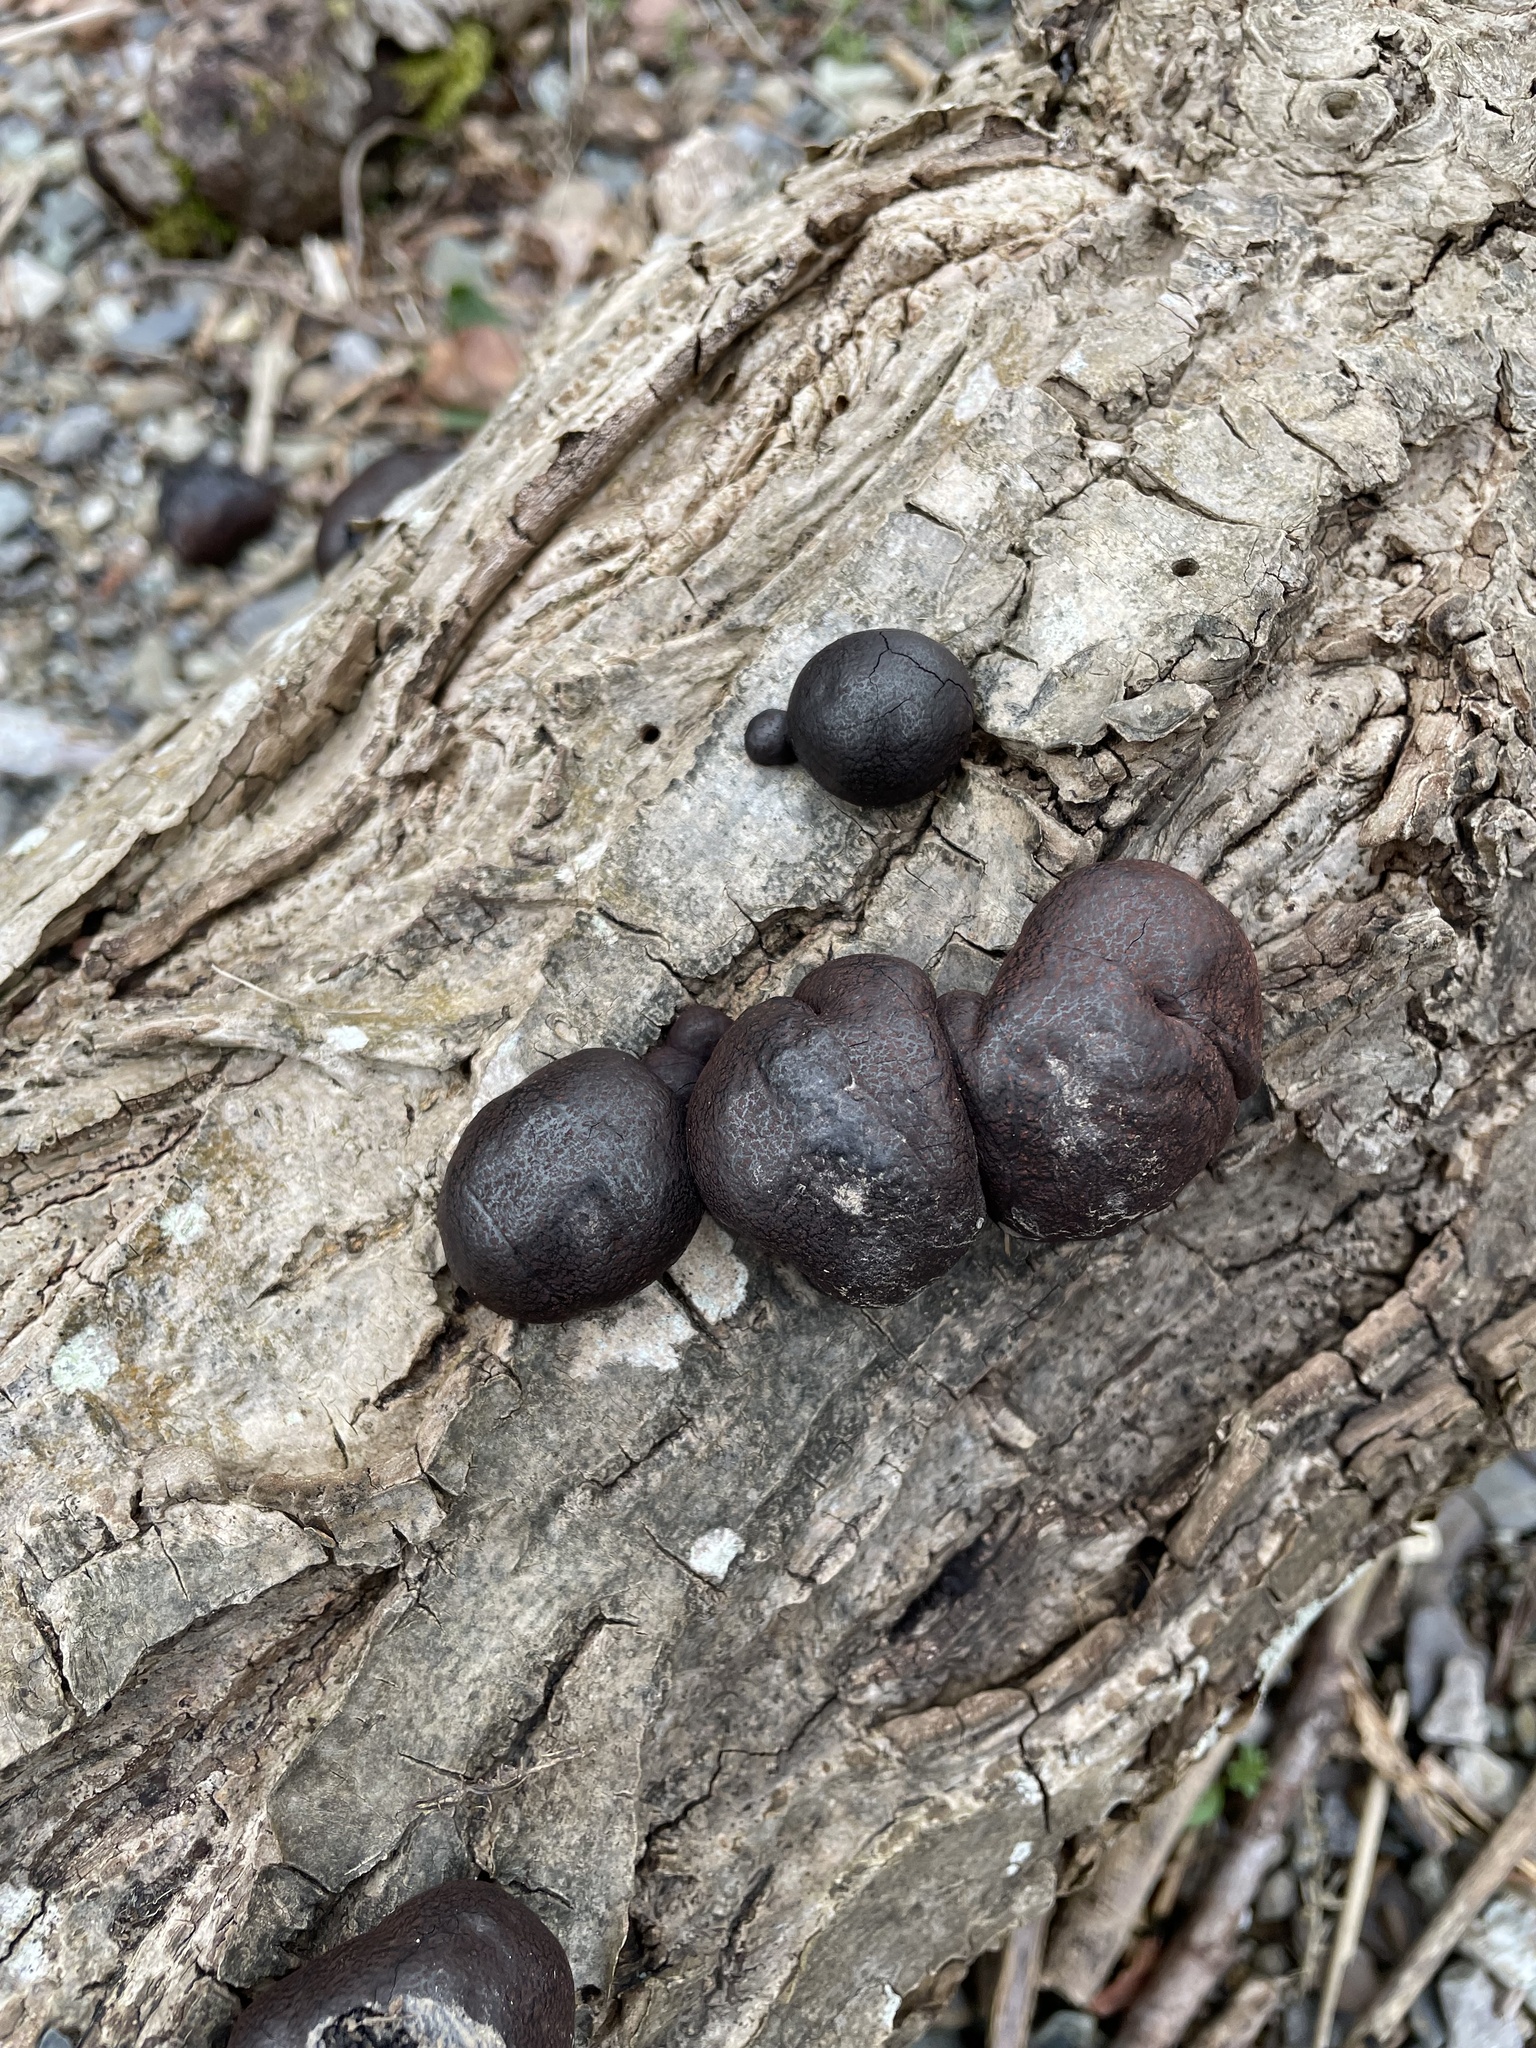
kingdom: Fungi
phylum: Ascomycota
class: Sordariomycetes
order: Xylariales
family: Hypoxylaceae
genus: Daldinia
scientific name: Daldinia concentrica
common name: Cramp balls
